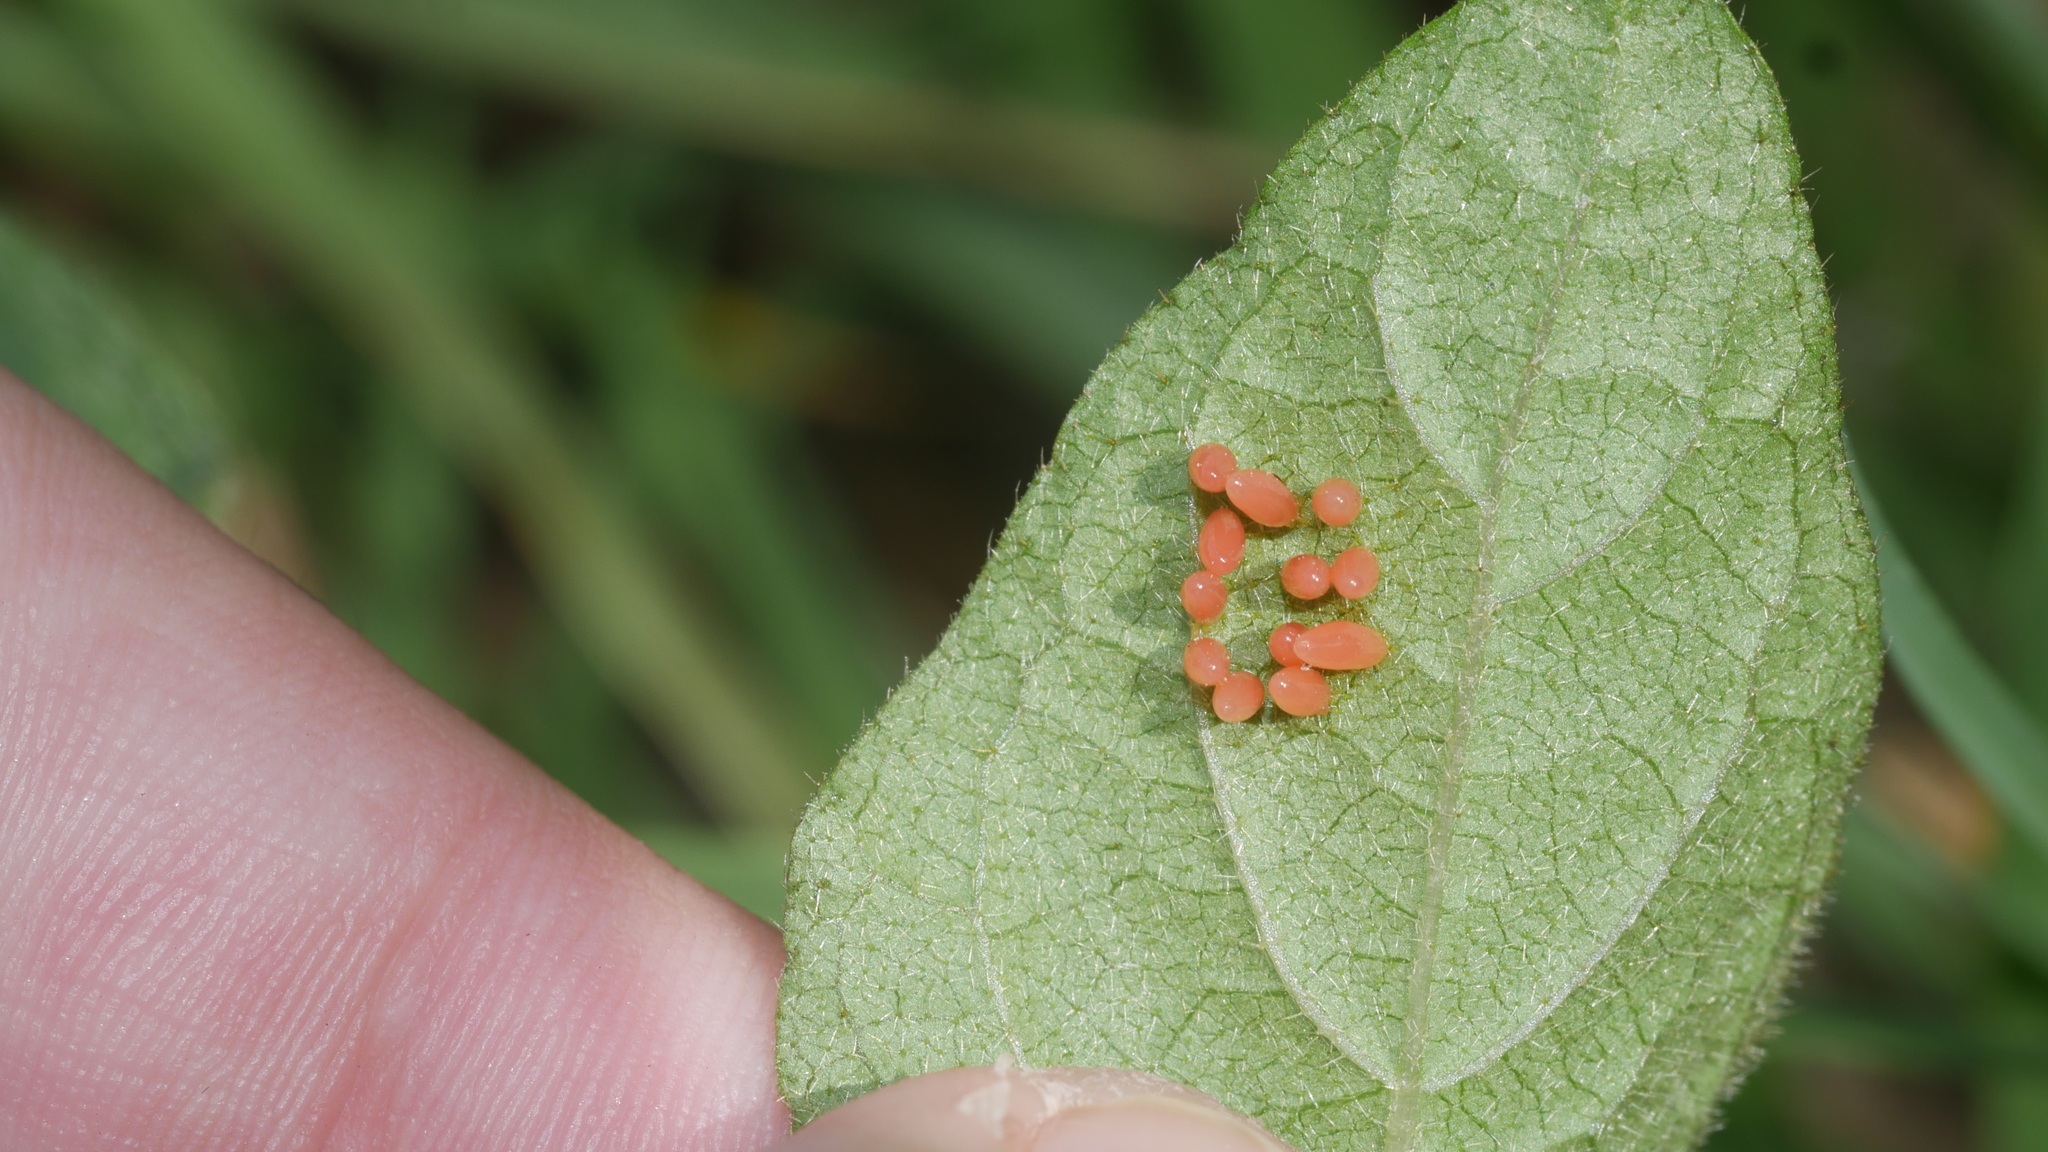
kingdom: Animalia
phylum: Arthropoda
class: Insecta
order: Coleoptera
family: Chrysomelidae
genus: Labidomera
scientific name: Labidomera clivicollis
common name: Swamp milkweed leaf beetle
